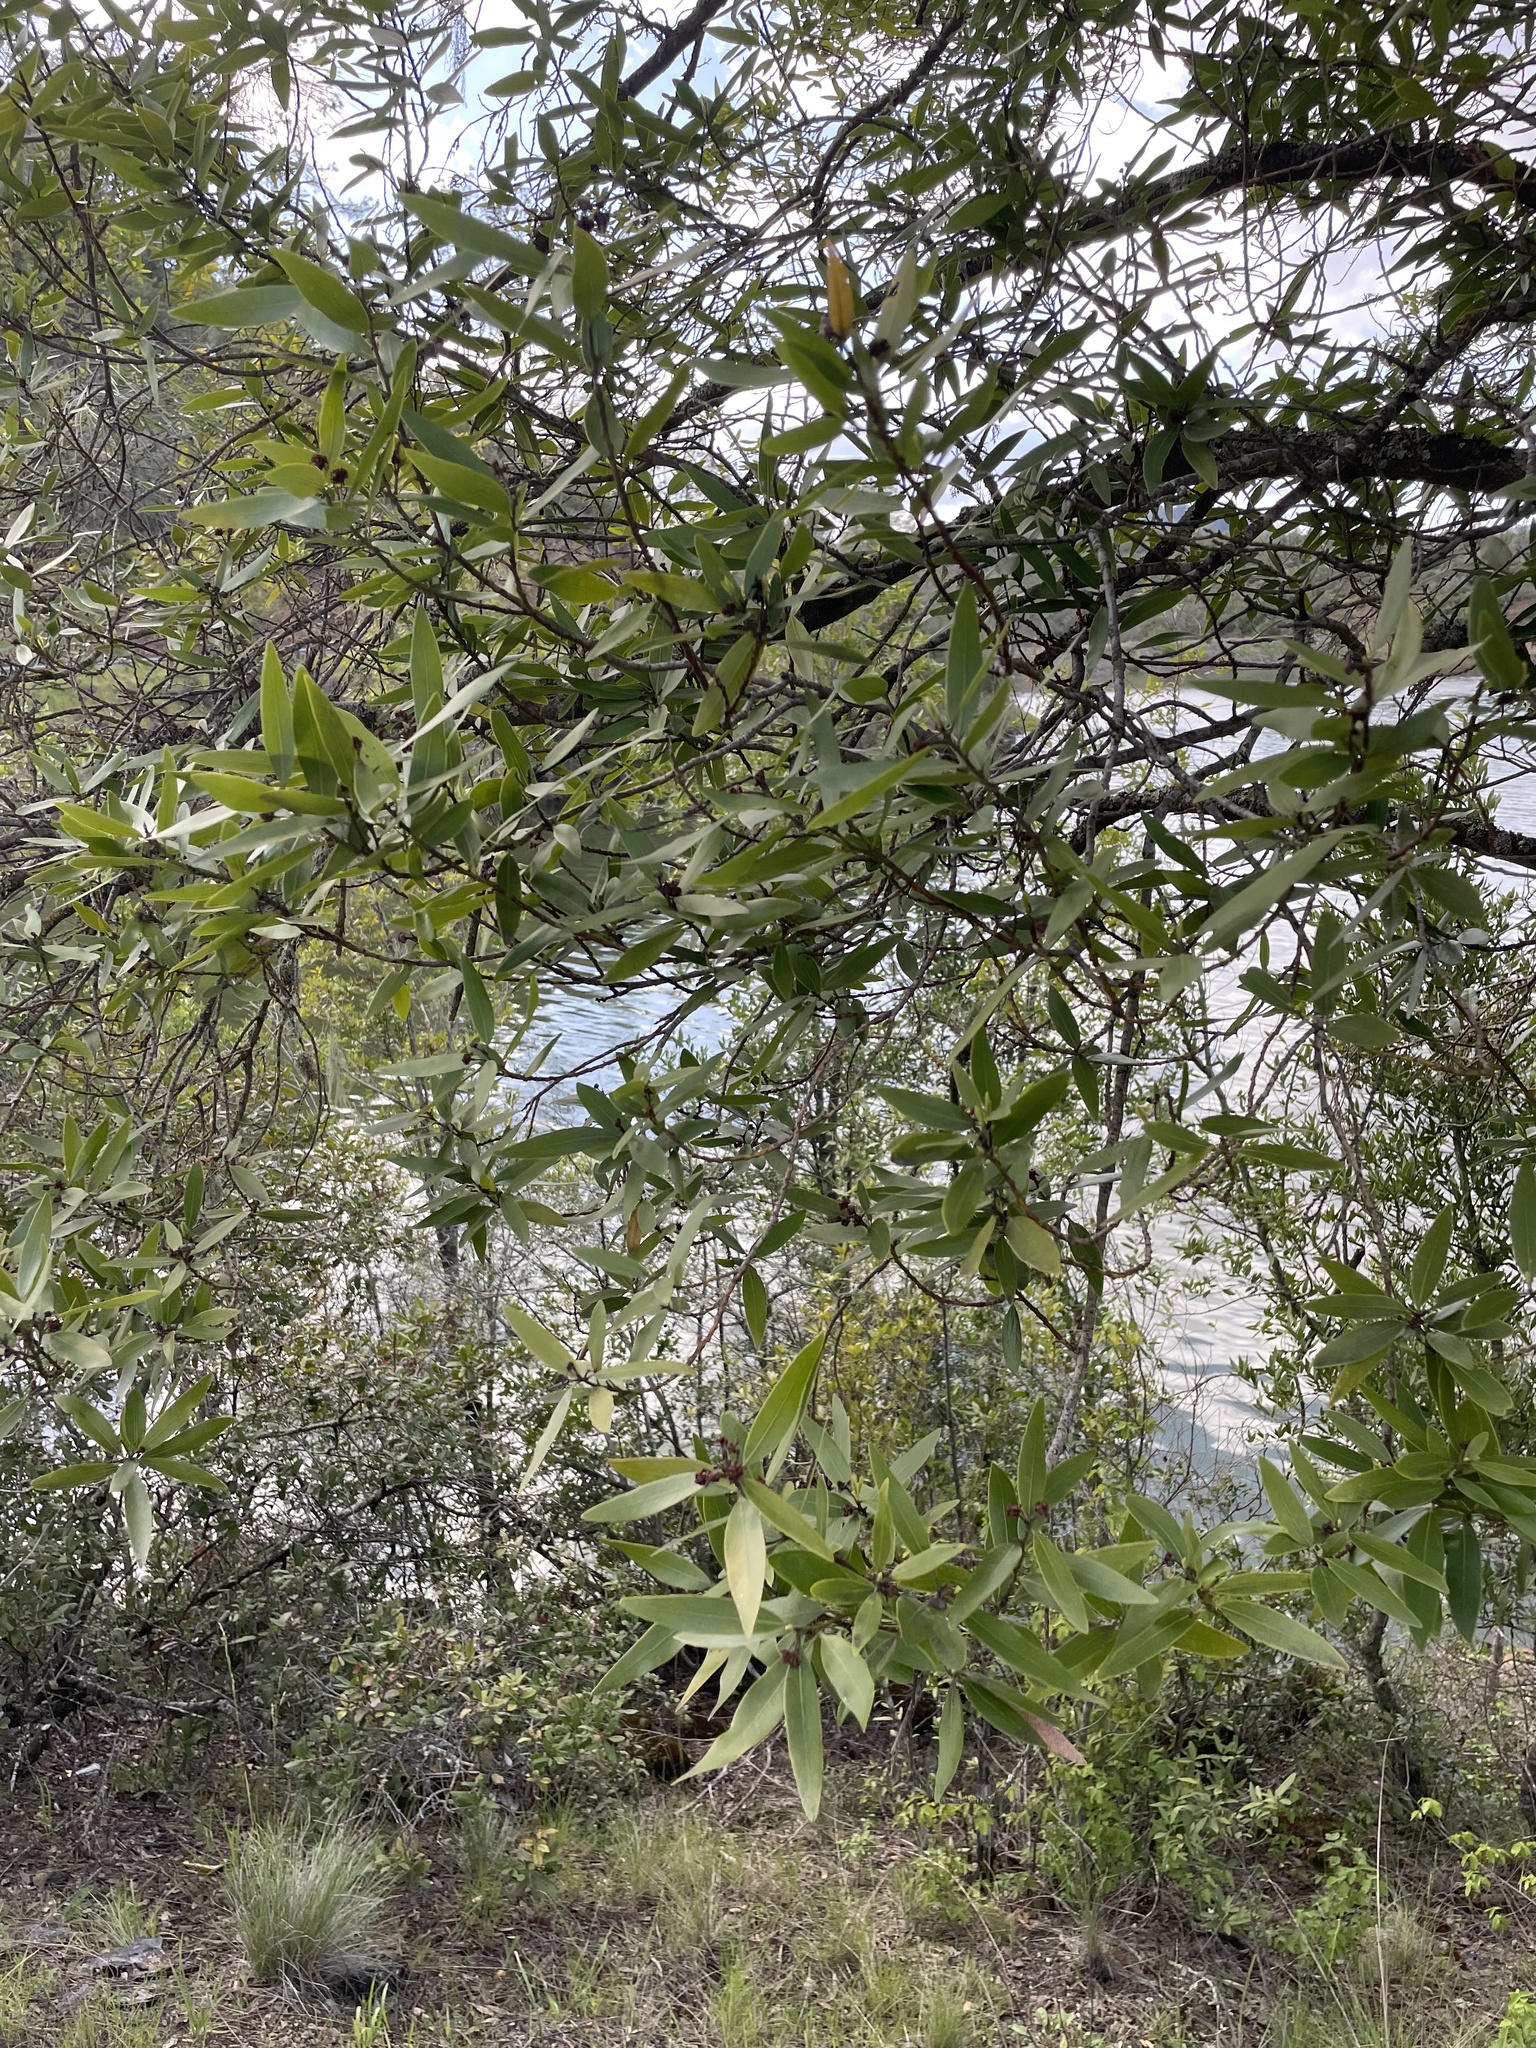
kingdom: Plantae
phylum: Tracheophyta
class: Magnoliopsida
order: Laurales
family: Lauraceae
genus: Umbellularia
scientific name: Umbellularia californica
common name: California bay
